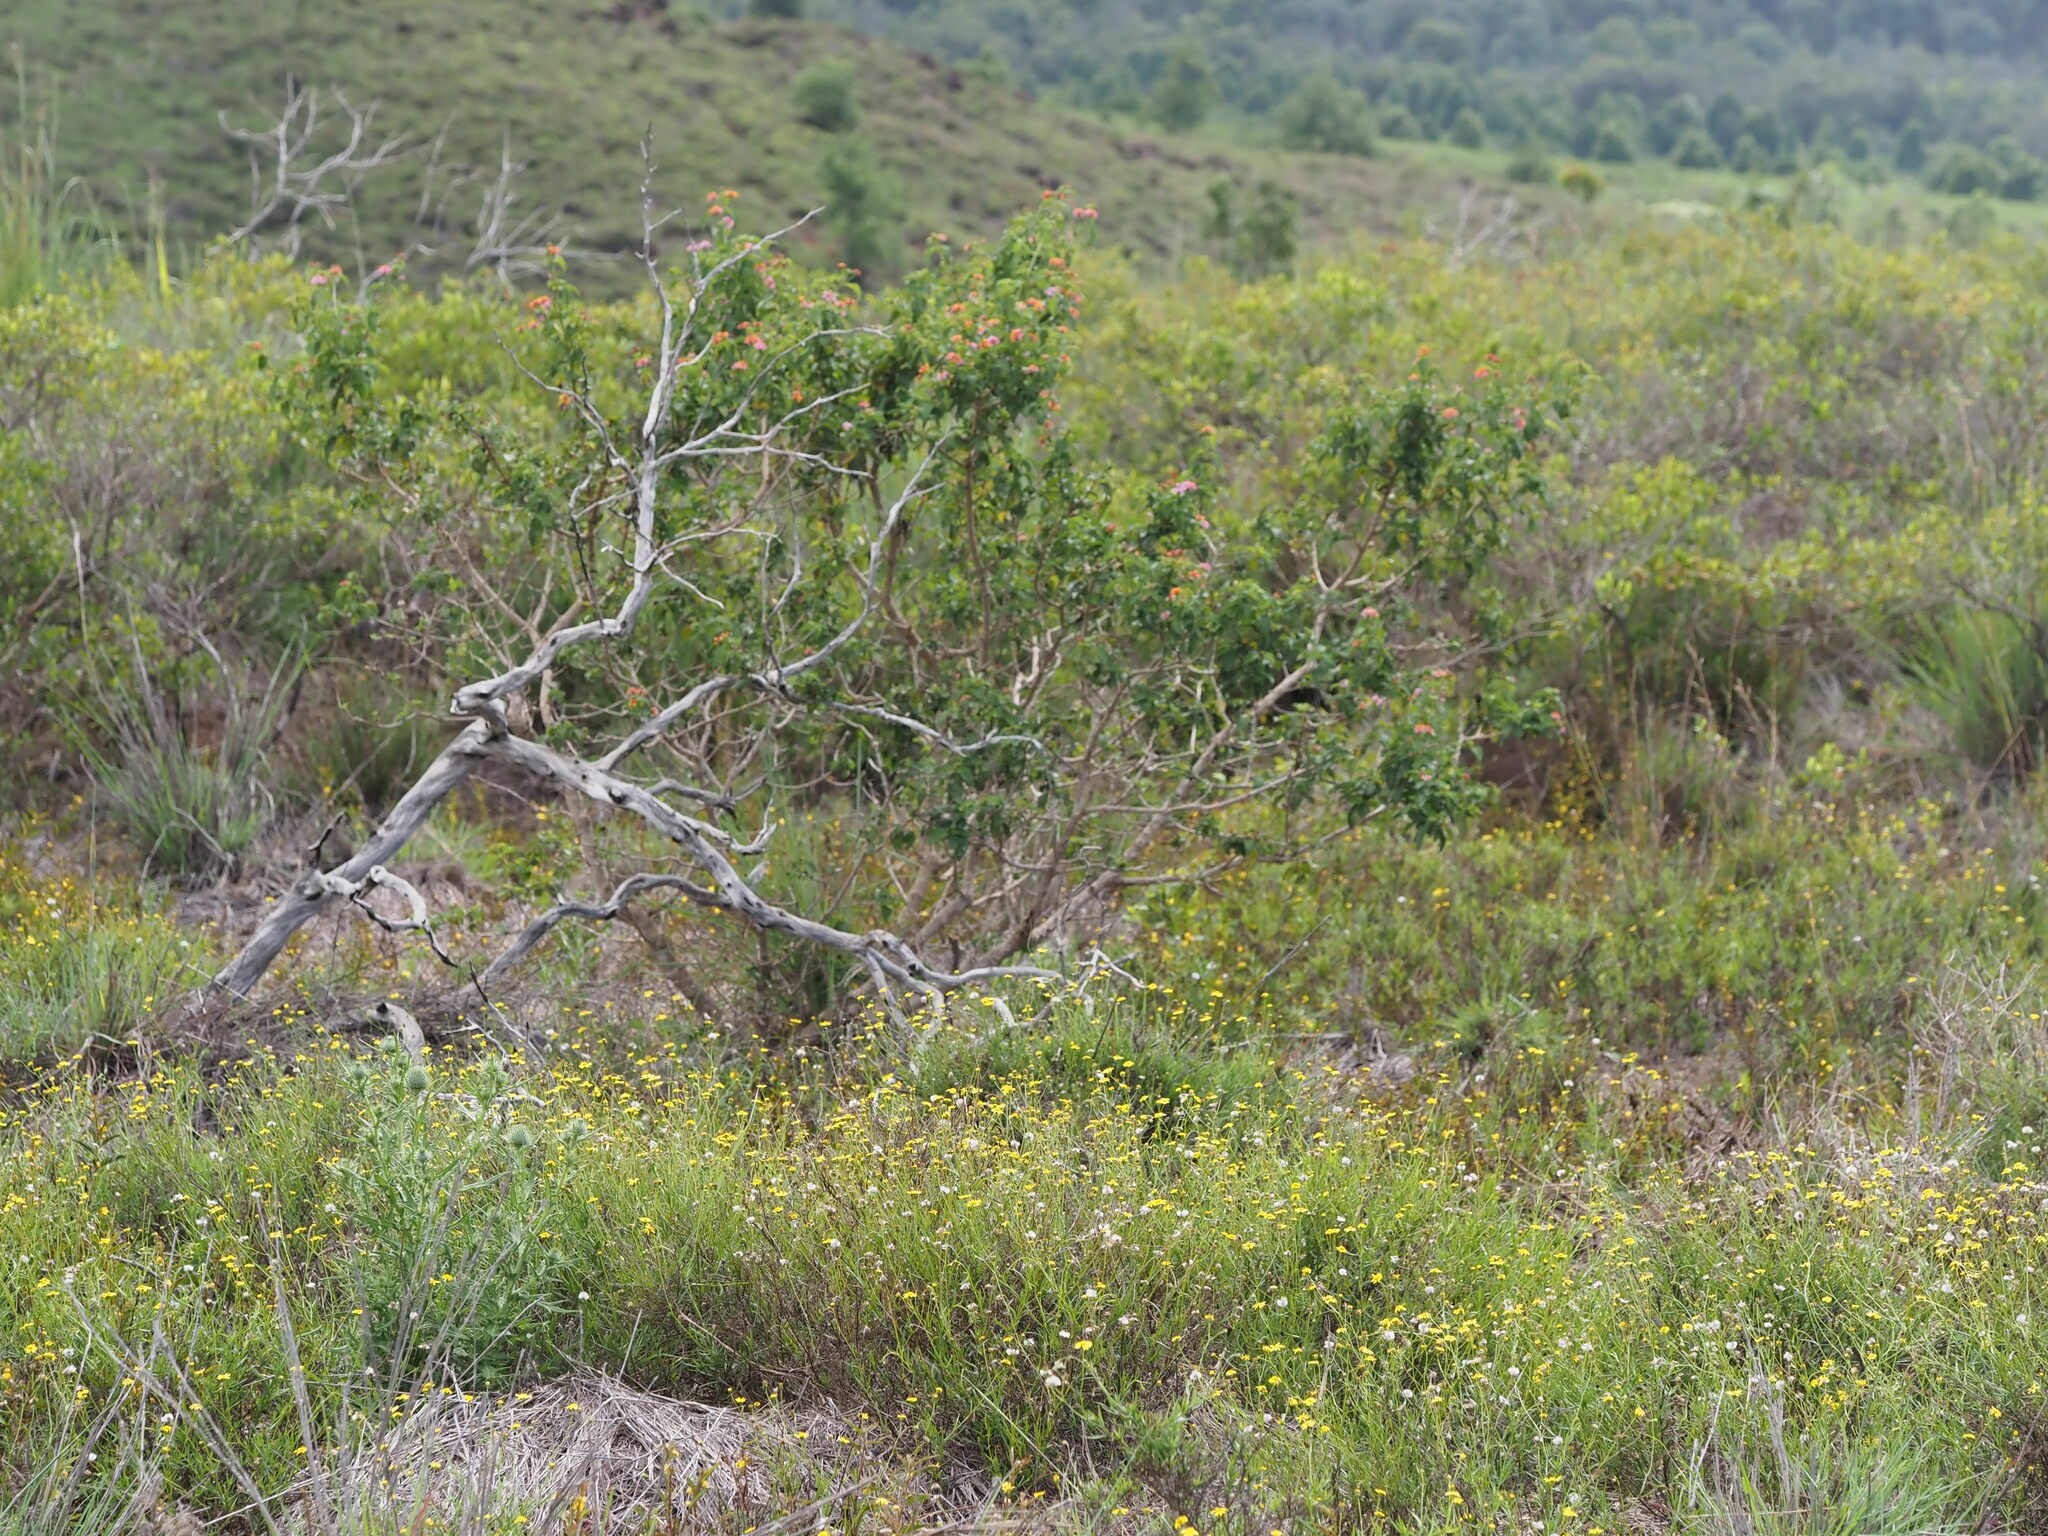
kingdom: Plantae
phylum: Tracheophyta
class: Magnoliopsida
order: Lamiales
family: Verbenaceae
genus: Lantana
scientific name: Lantana camara
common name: Lantana
